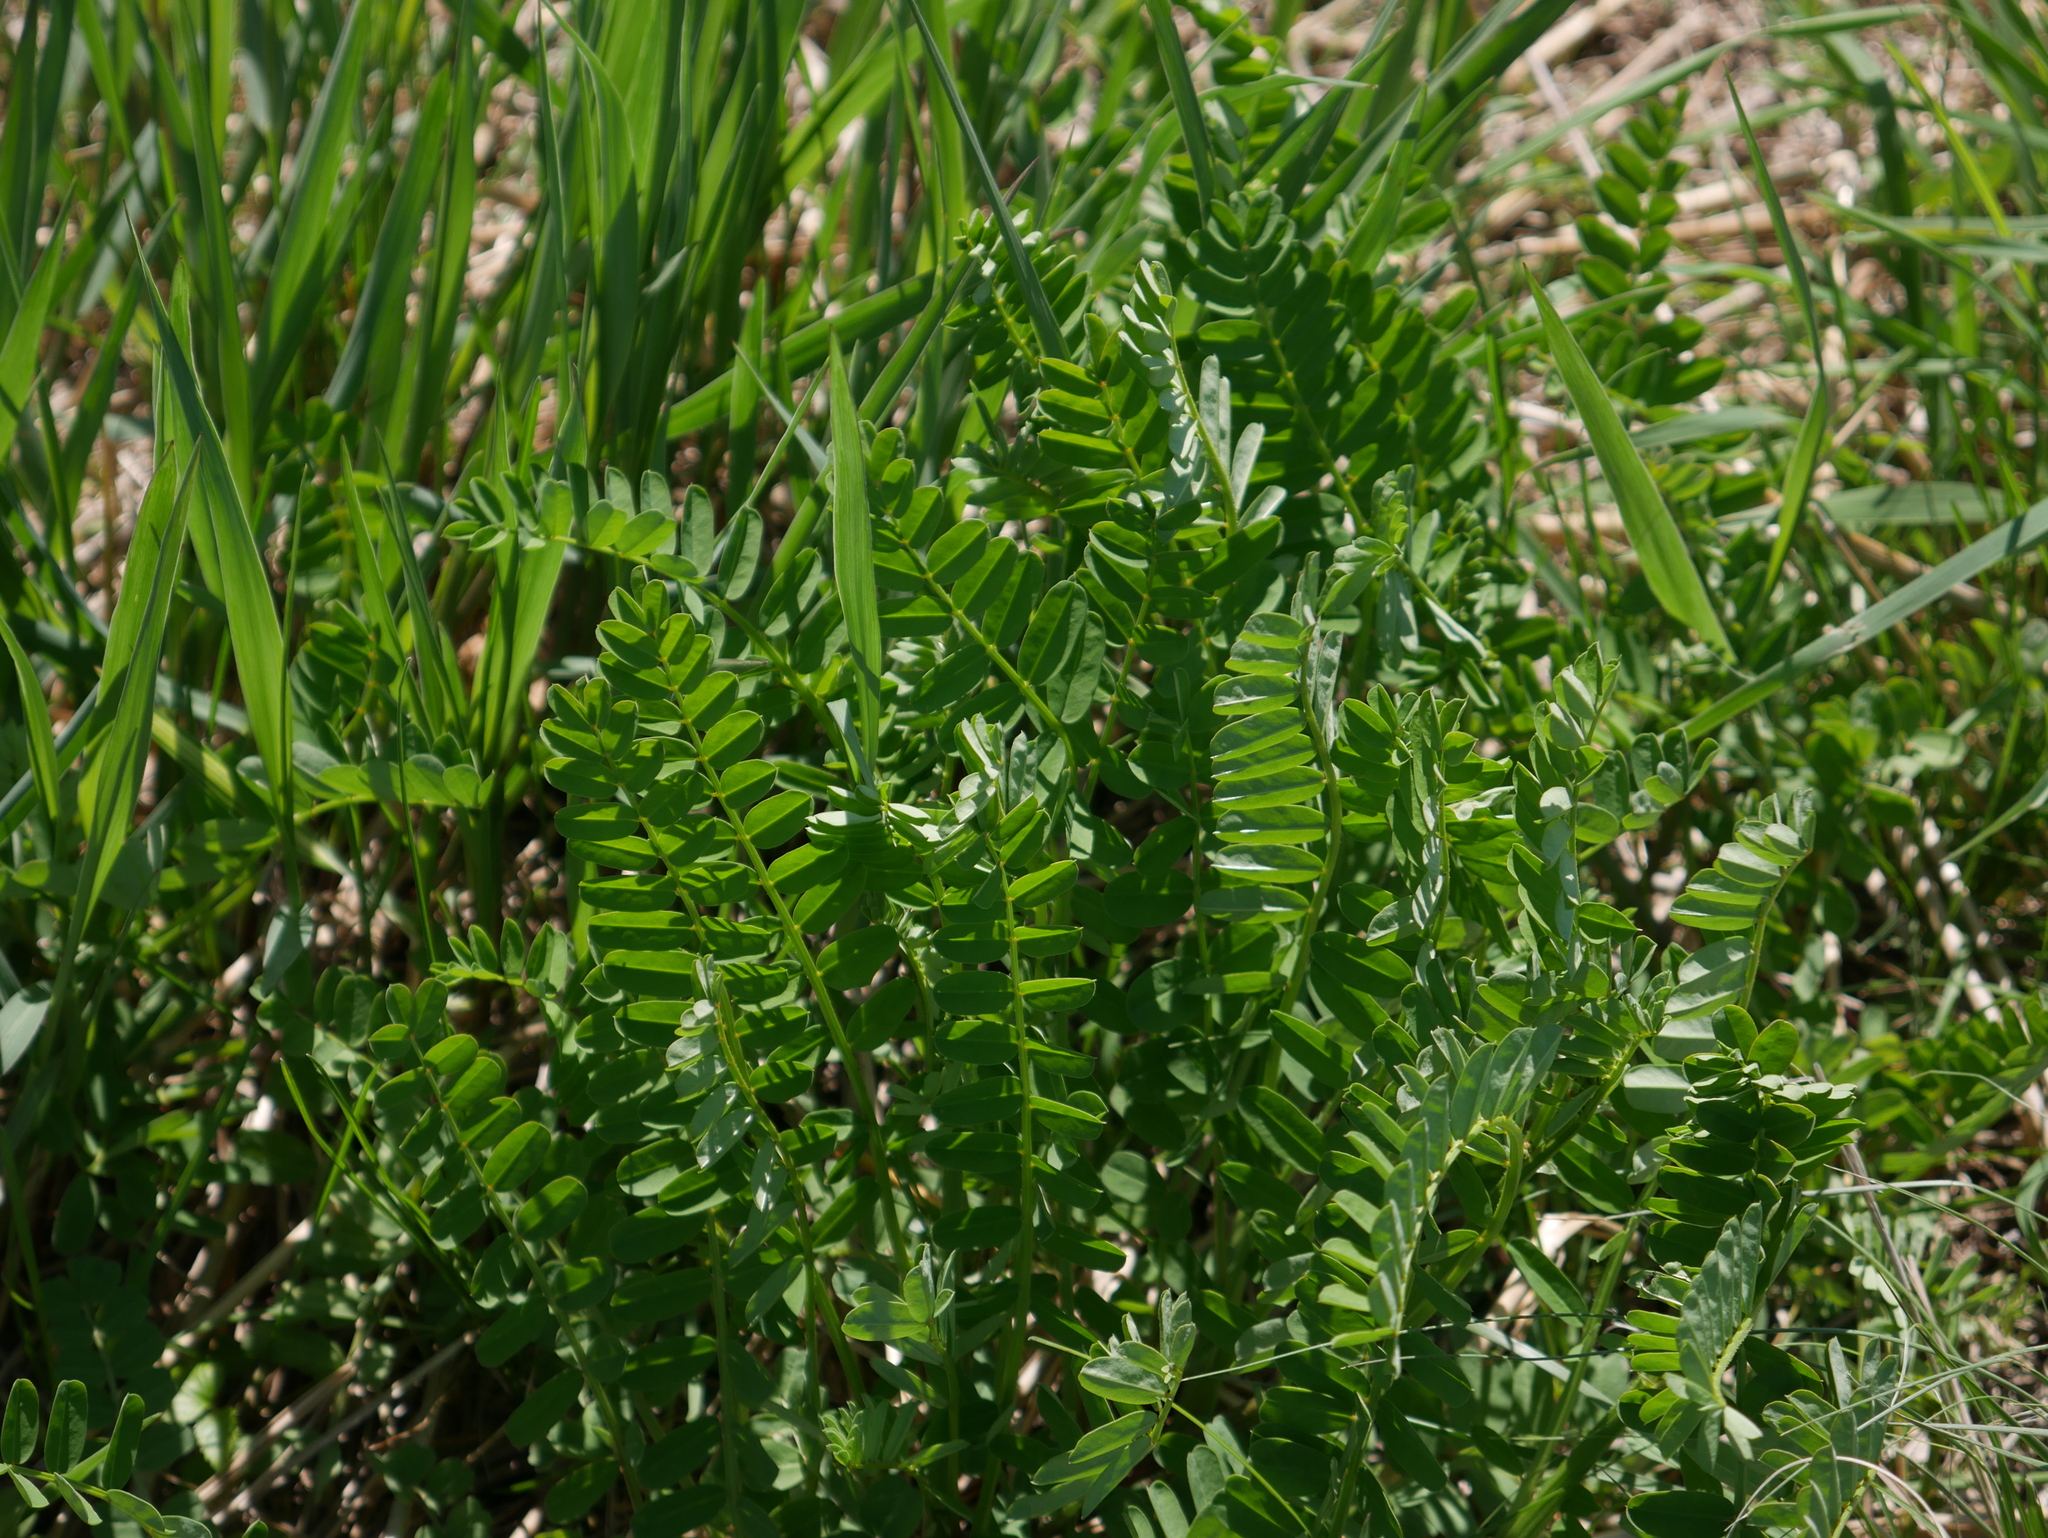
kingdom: Plantae
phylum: Tracheophyta
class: Magnoliopsida
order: Fabales
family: Fabaceae
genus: Coronilla
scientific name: Coronilla varia
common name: Crownvetch
